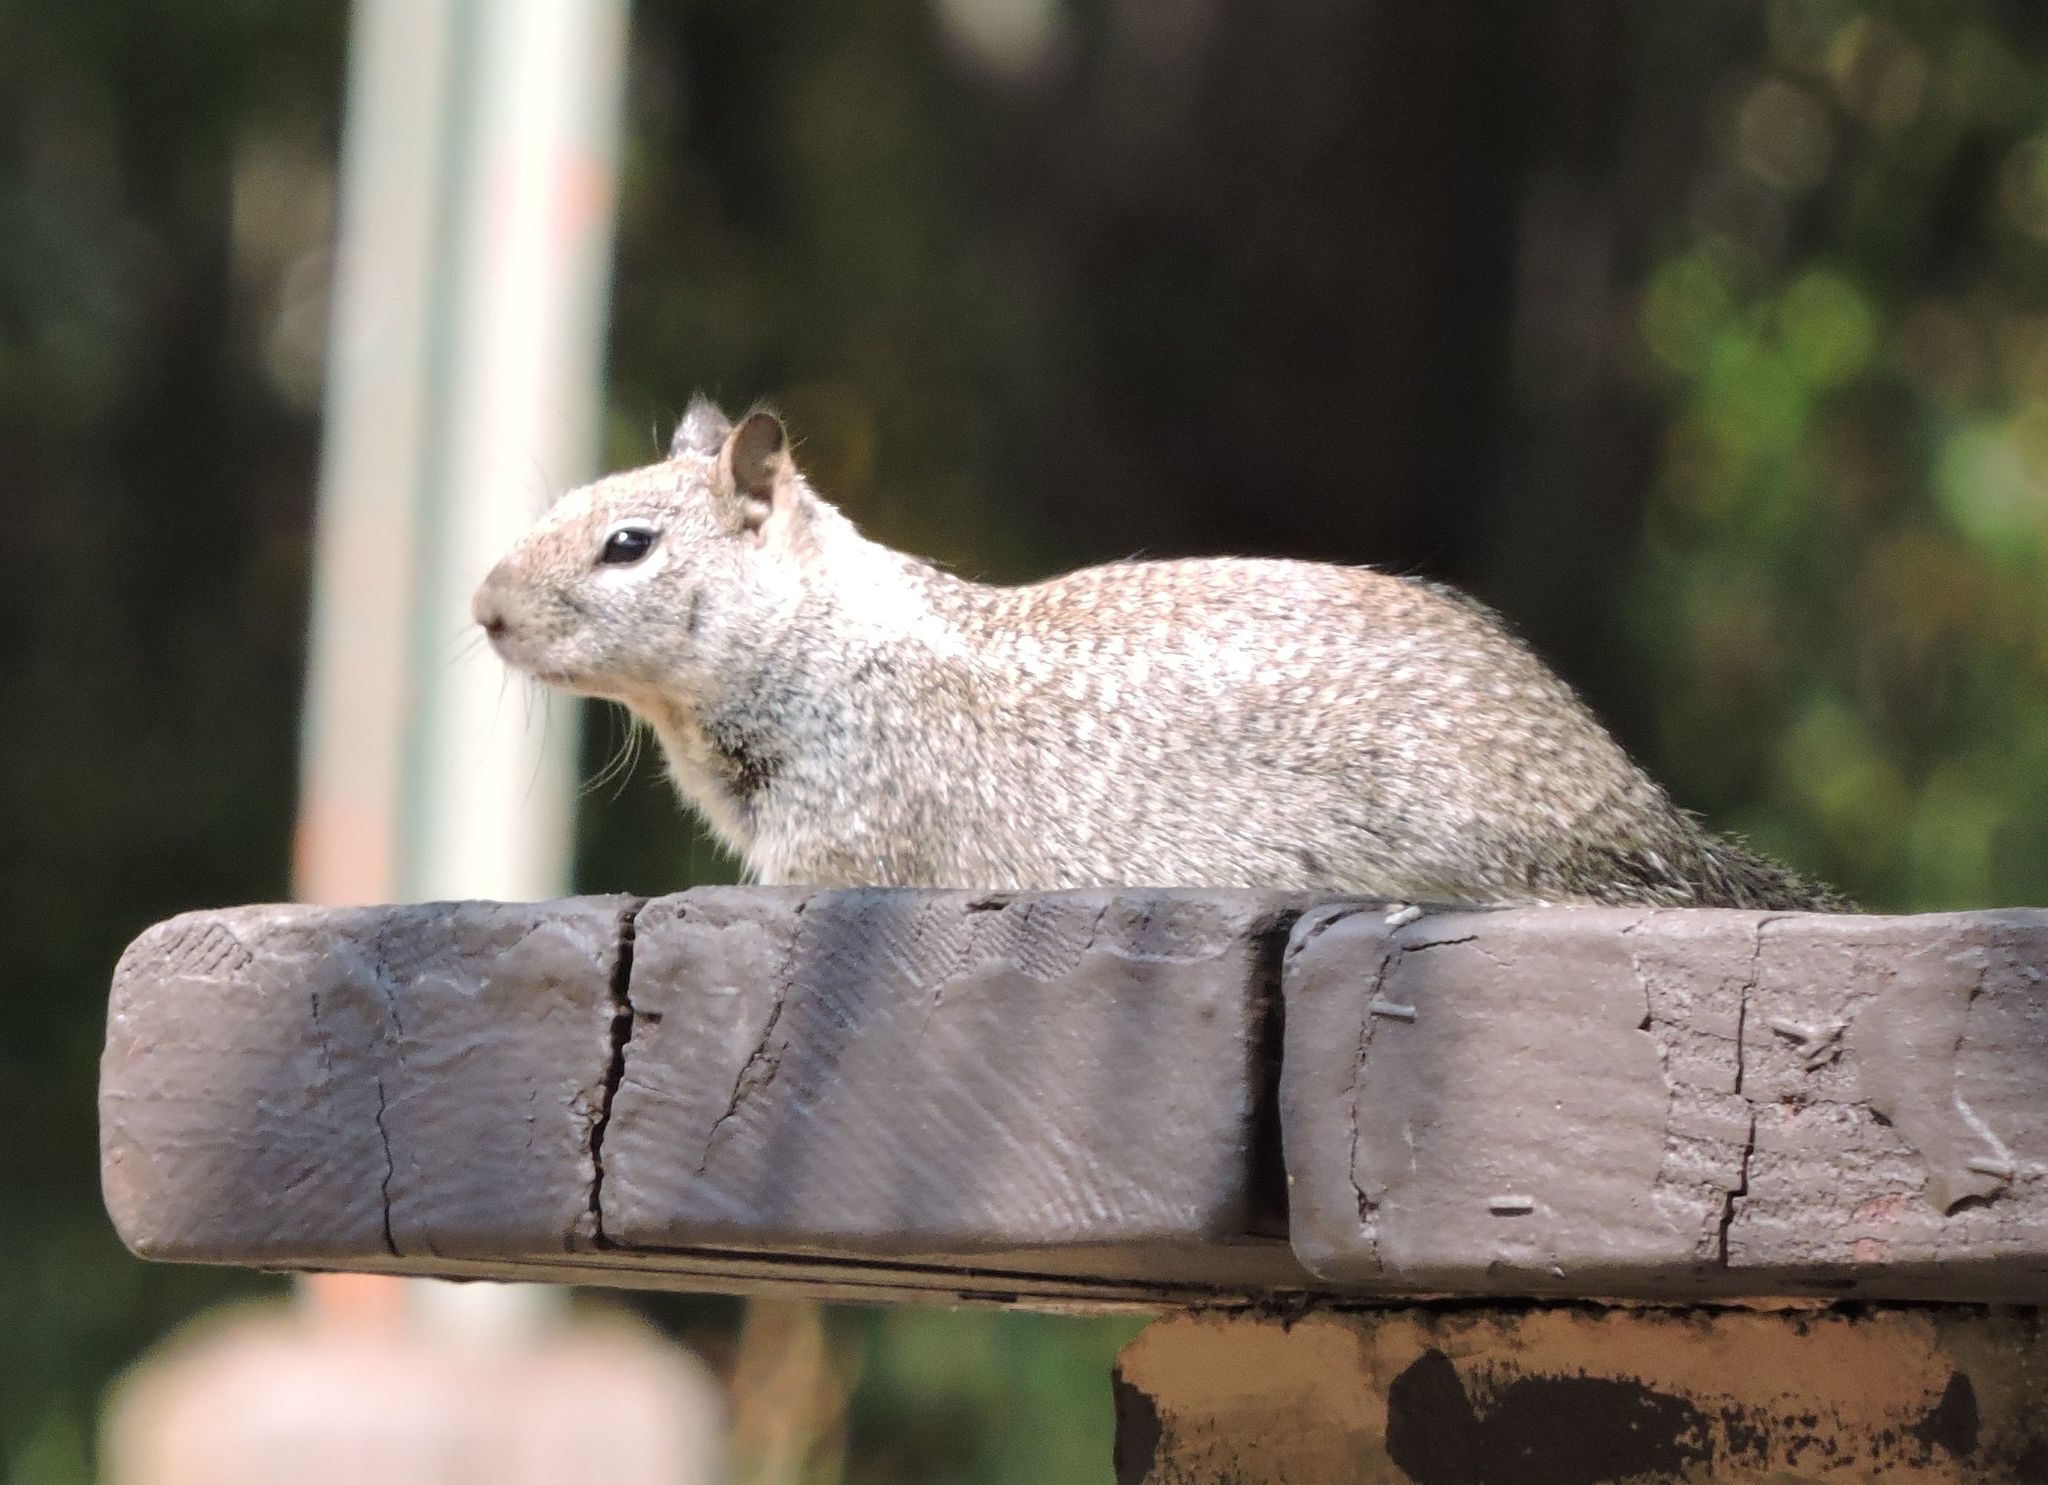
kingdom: Animalia
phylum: Chordata
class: Mammalia
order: Rodentia
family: Sciuridae
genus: Otospermophilus
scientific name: Otospermophilus beecheyi
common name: California ground squirrel
